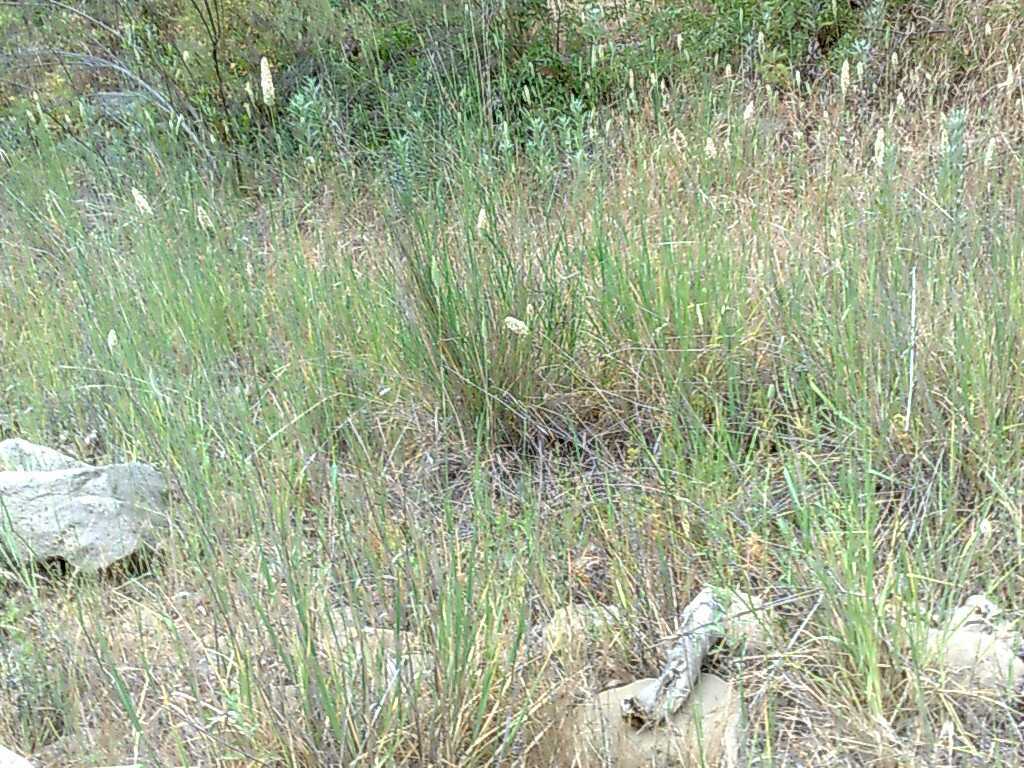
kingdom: Plantae
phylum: Tracheophyta
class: Liliopsida
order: Poales
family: Poaceae
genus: Phalaris
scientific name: Phalaris aquatica
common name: Bulbous canary-grass
